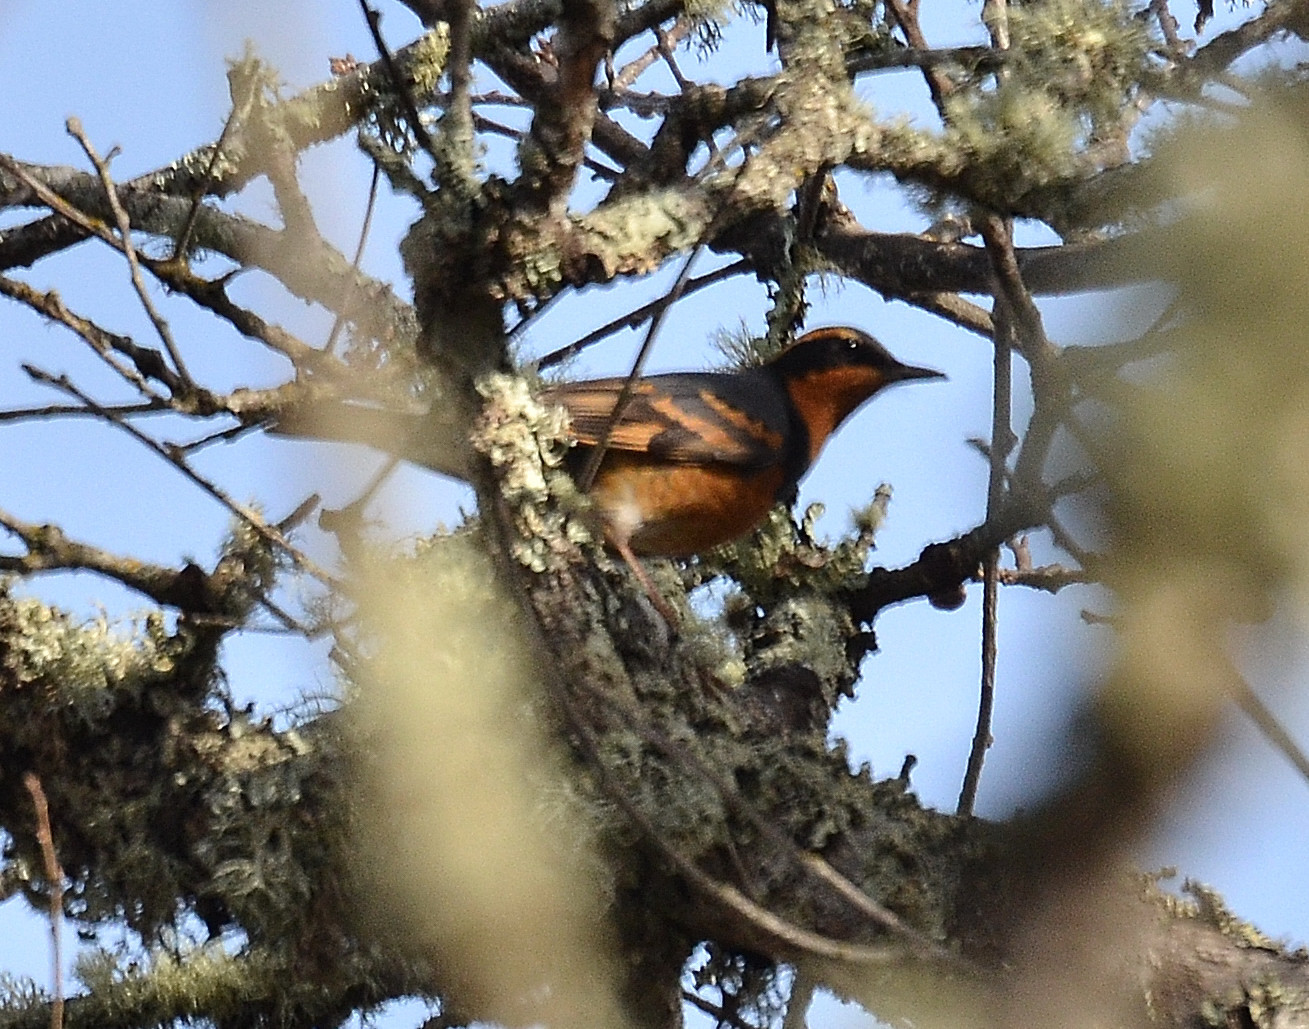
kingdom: Animalia
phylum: Chordata
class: Aves
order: Passeriformes
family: Turdidae
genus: Ixoreus
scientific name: Ixoreus naevius
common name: Varied thrush
